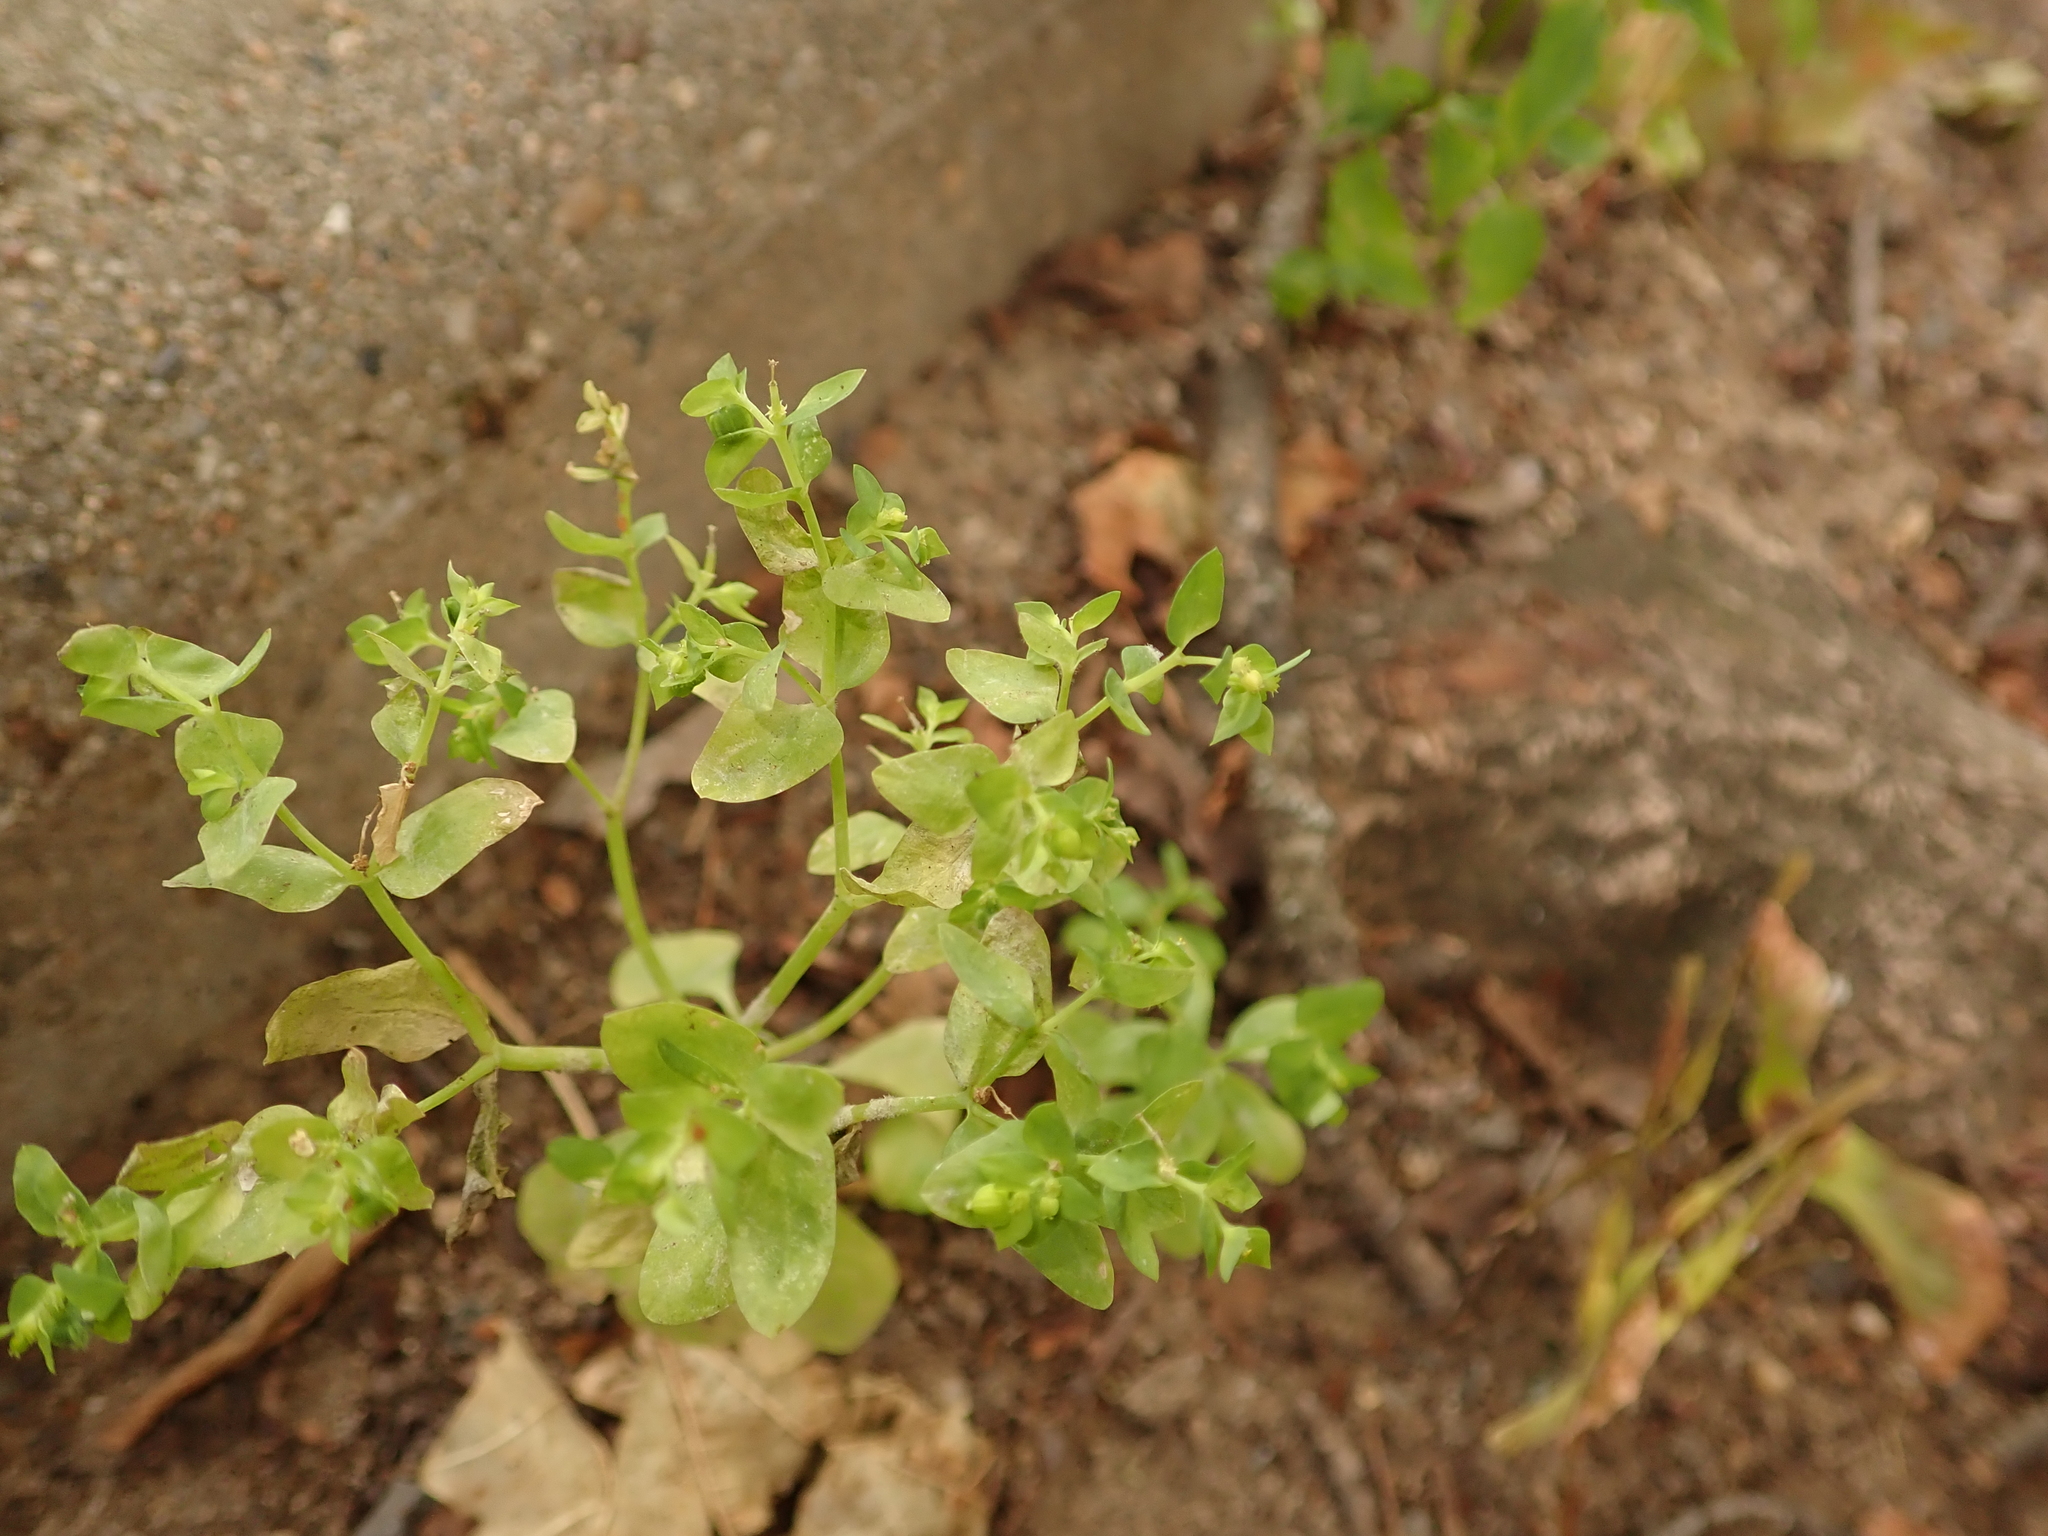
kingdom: Plantae
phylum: Tracheophyta
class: Magnoliopsida
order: Malpighiales
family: Euphorbiaceae
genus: Euphorbia
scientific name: Euphorbia peplus
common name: Petty spurge
